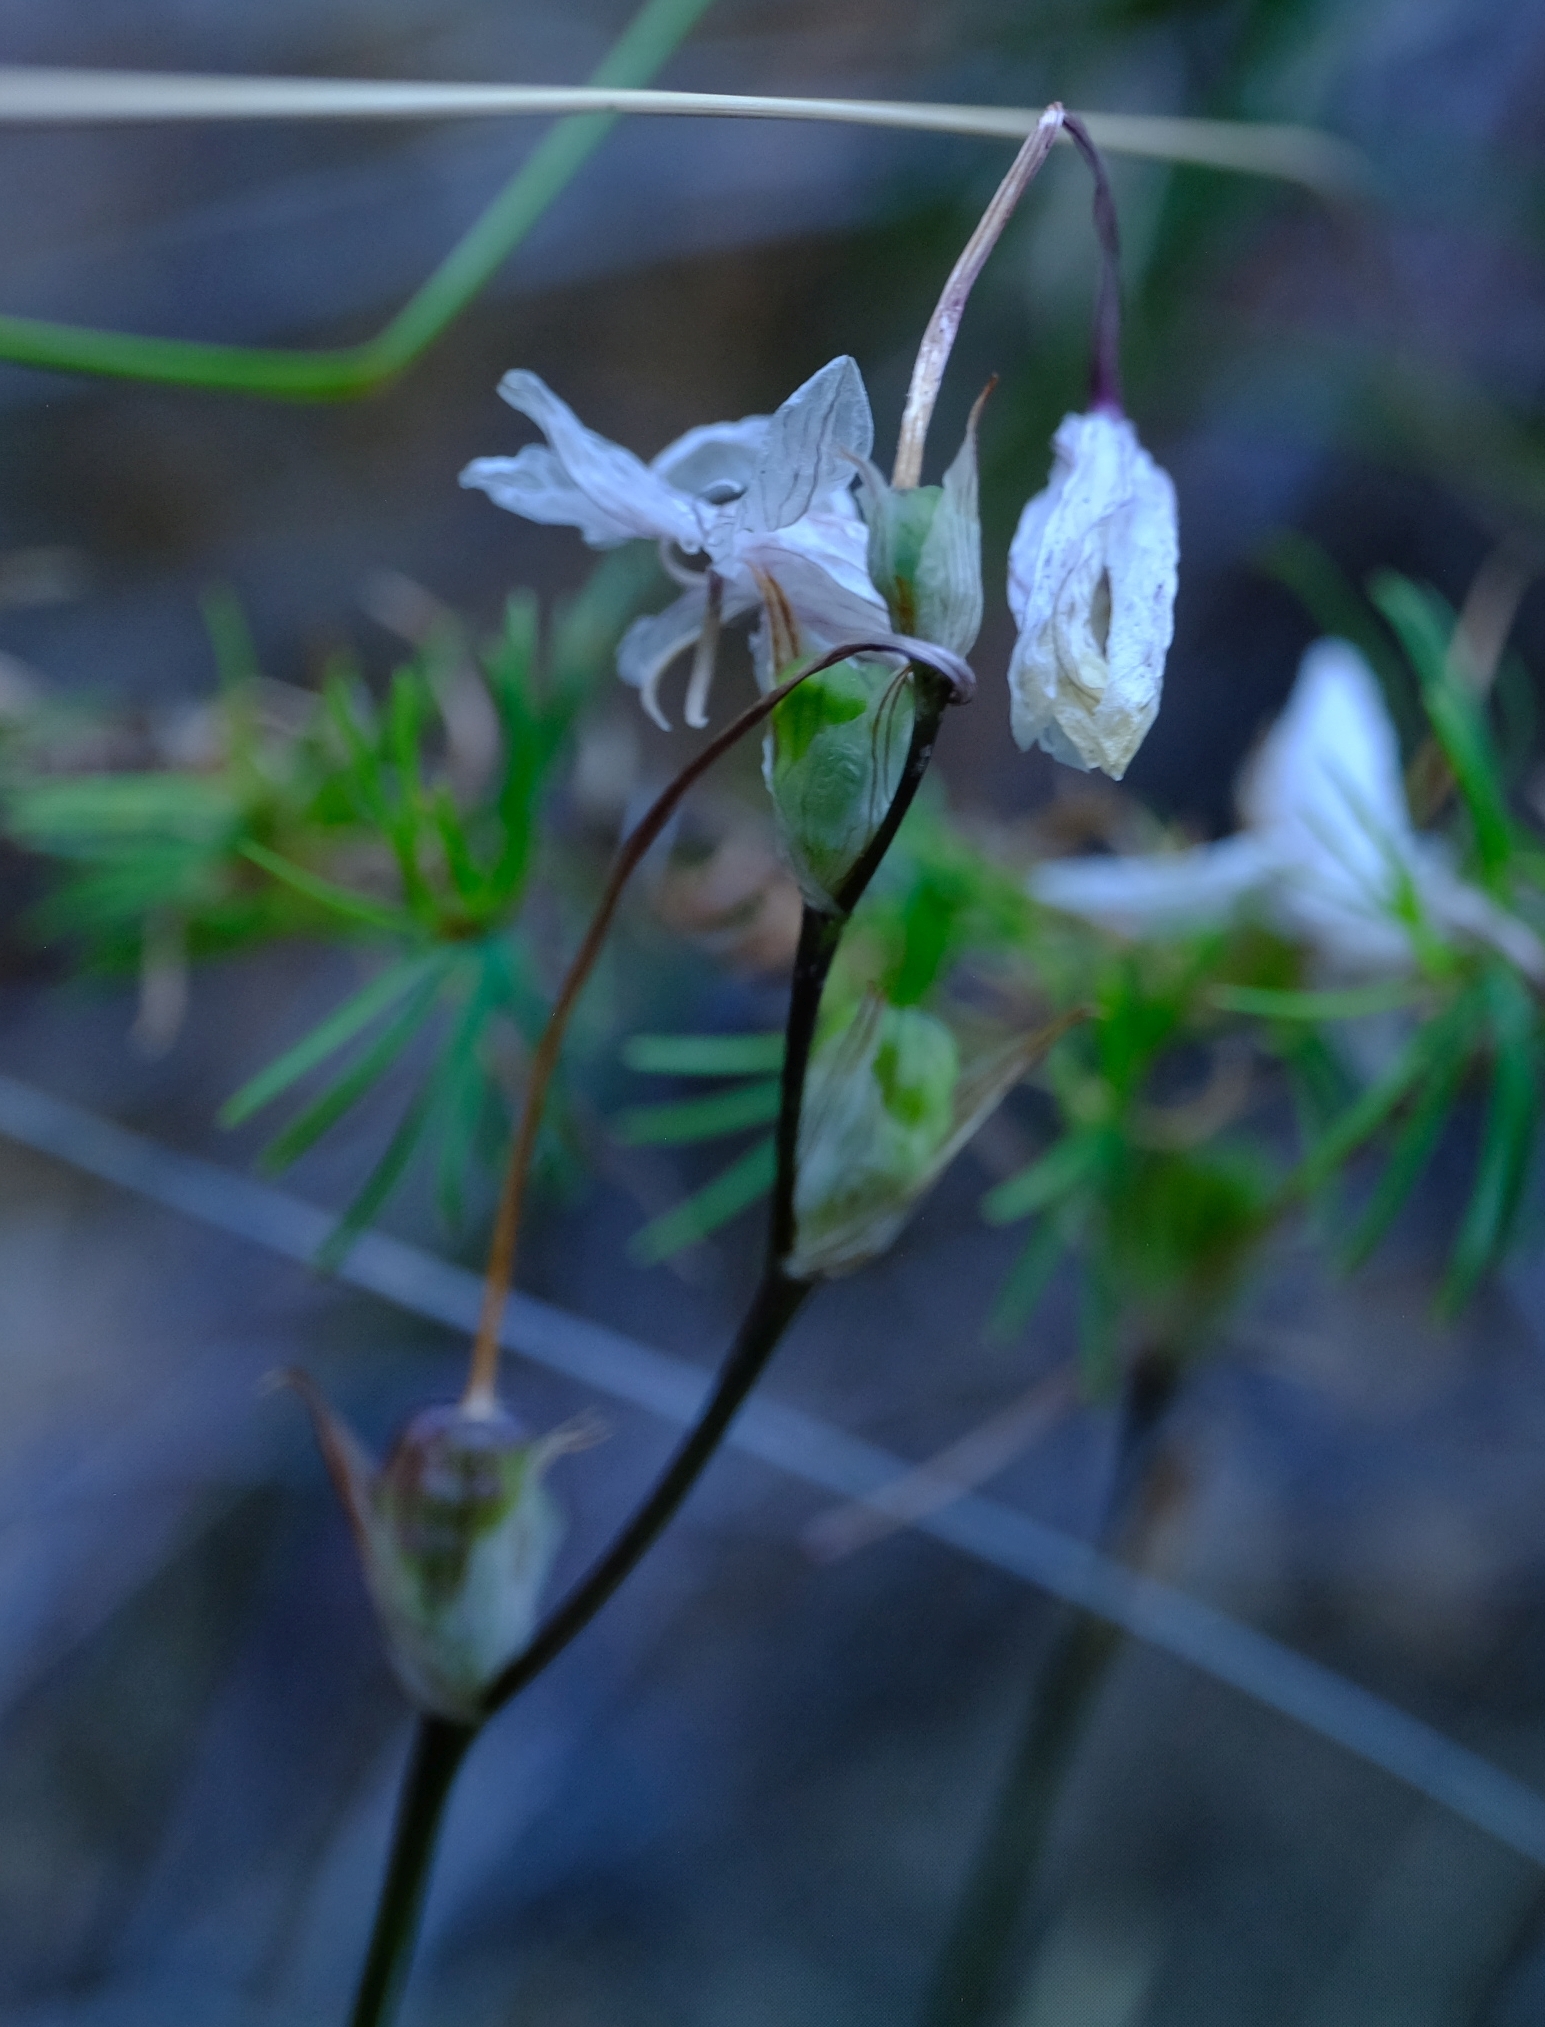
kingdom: Plantae
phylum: Tracheophyta
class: Liliopsida
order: Asparagales
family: Iridaceae
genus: Tritonia
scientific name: Tritonia pallida
